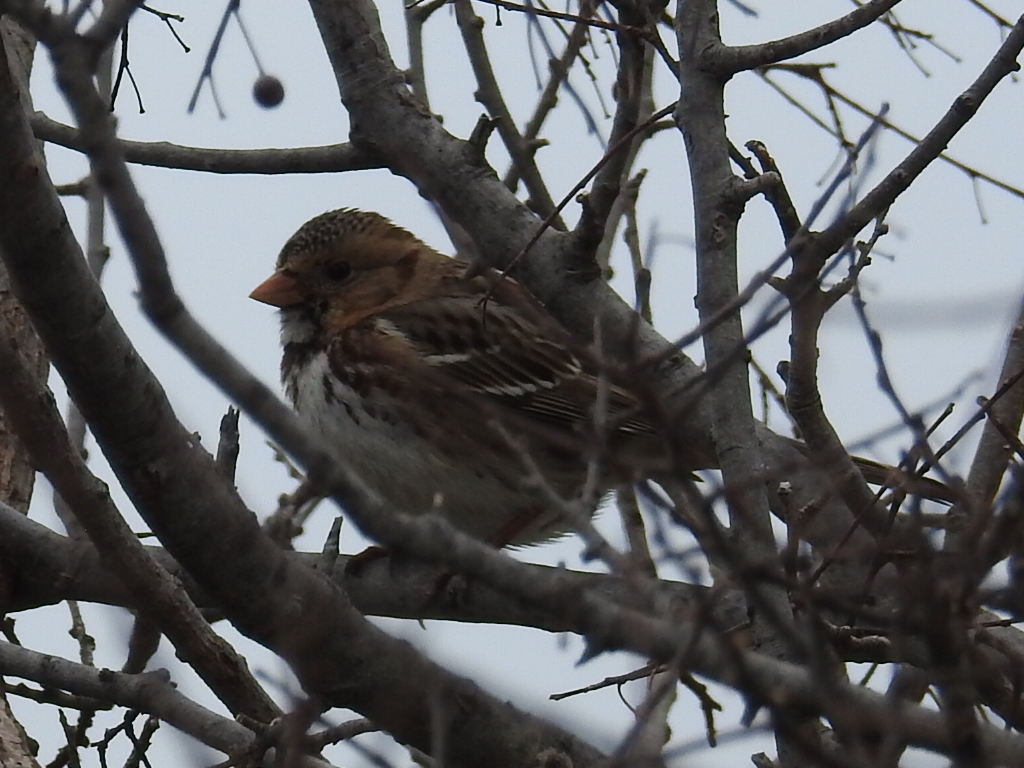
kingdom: Animalia
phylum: Chordata
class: Aves
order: Passeriformes
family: Passerellidae
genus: Zonotrichia
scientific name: Zonotrichia querula
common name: Harris's sparrow
